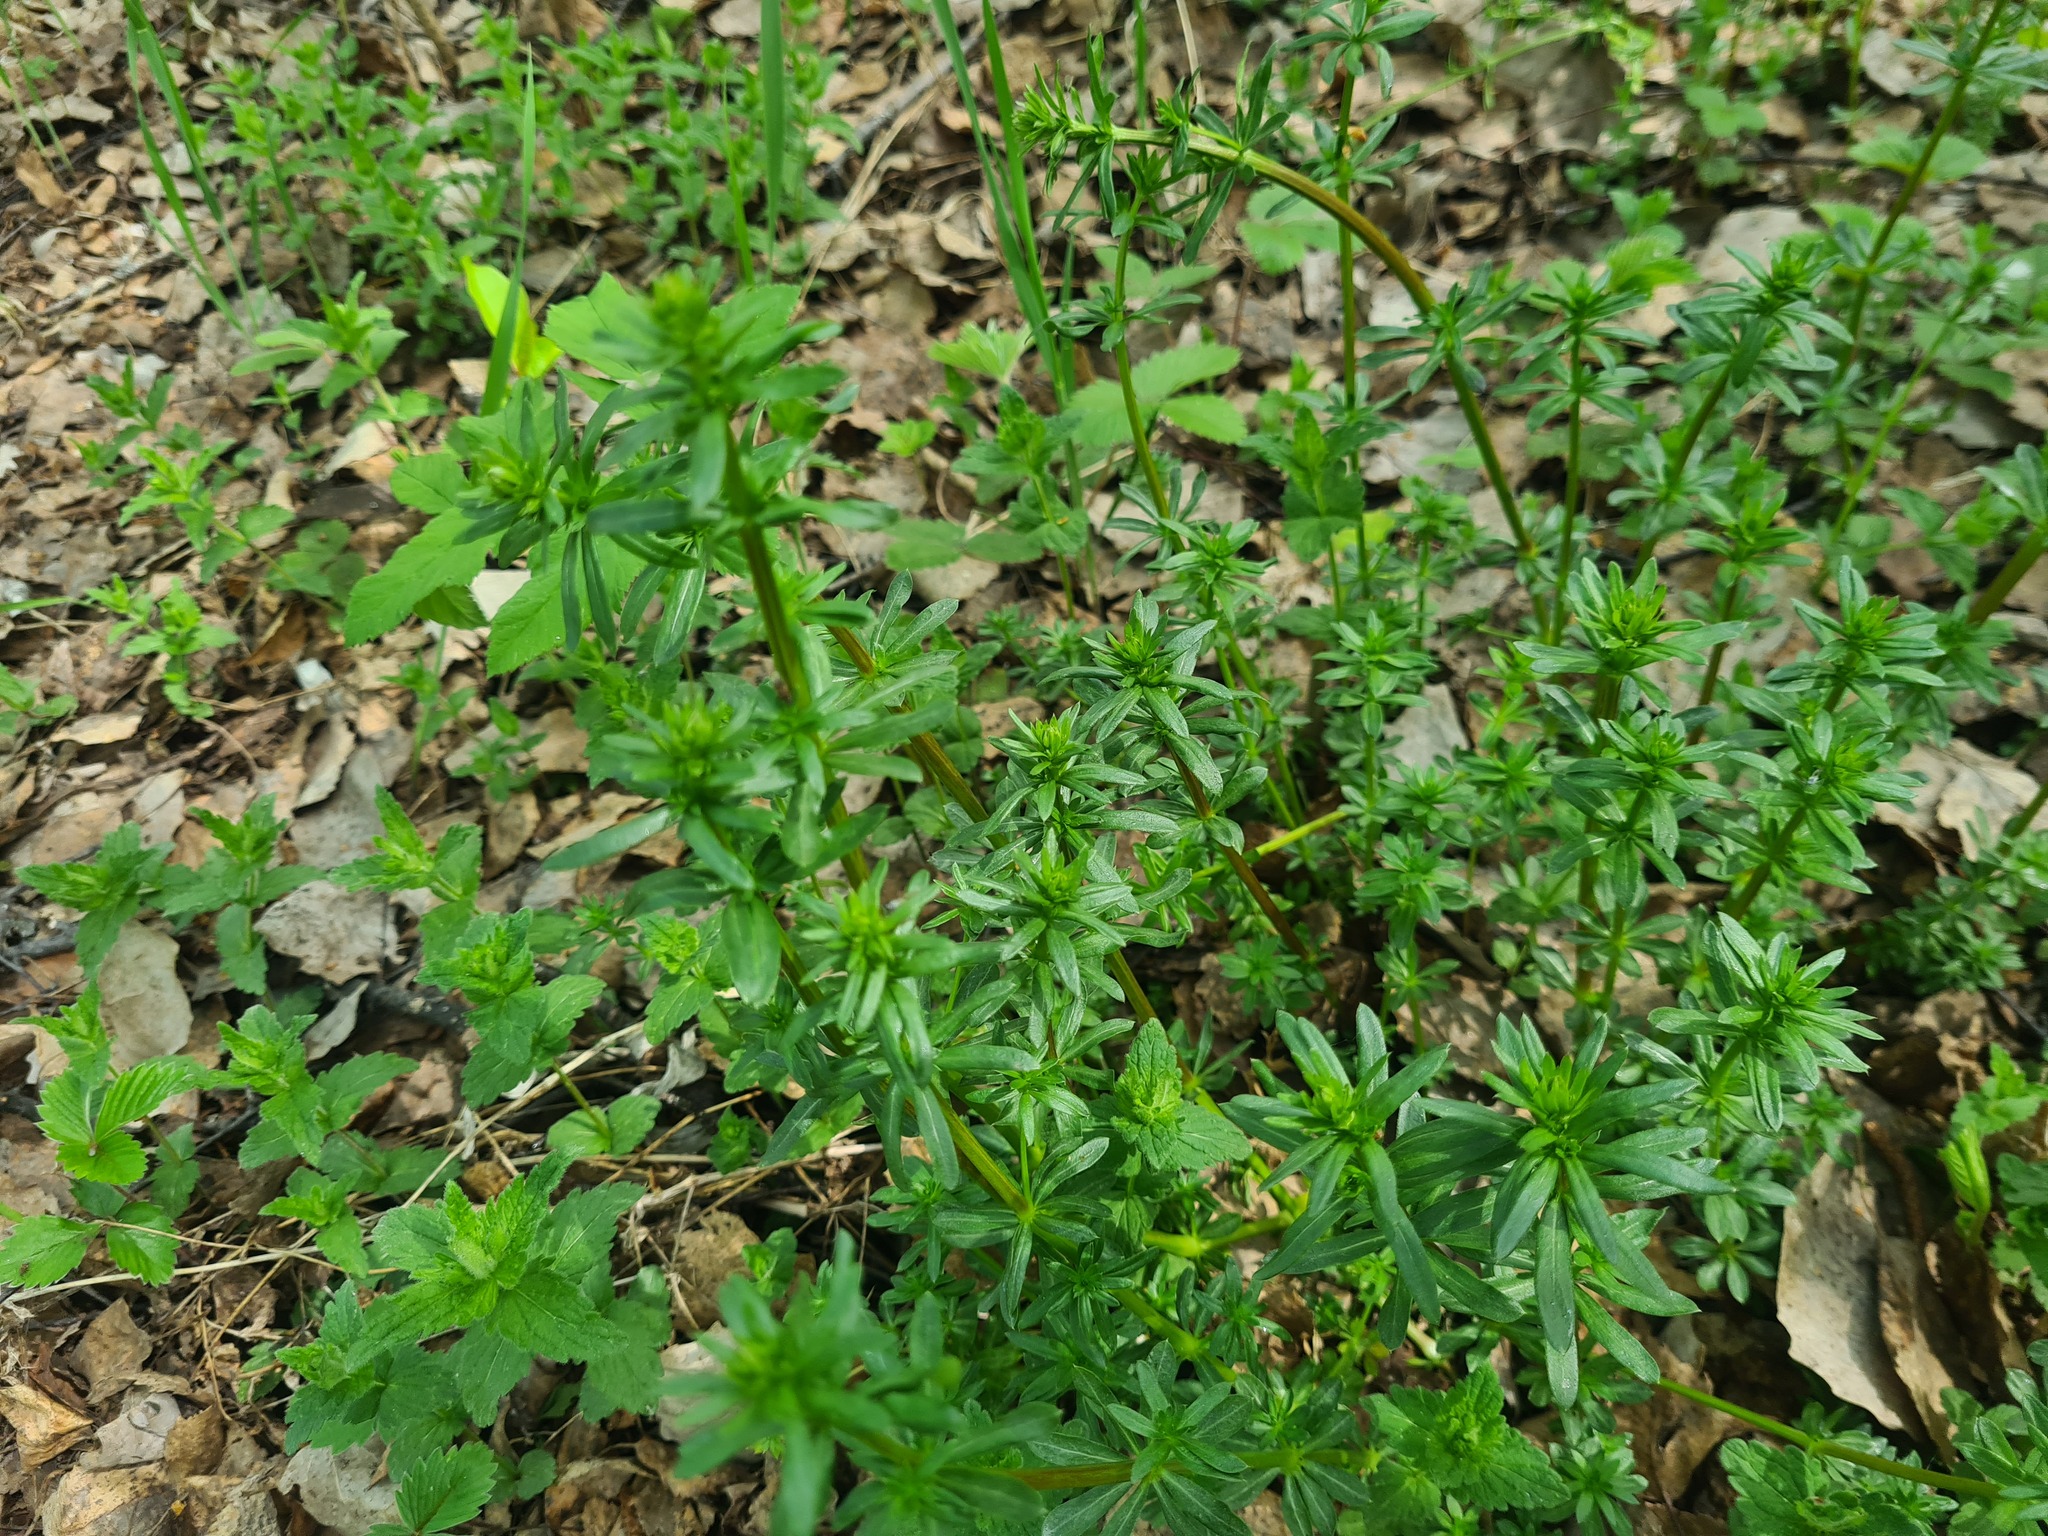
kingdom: Plantae
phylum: Tracheophyta
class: Magnoliopsida
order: Gentianales
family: Rubiaceae
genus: Galium
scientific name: Galium mollugo
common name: Hedge bedstraw
